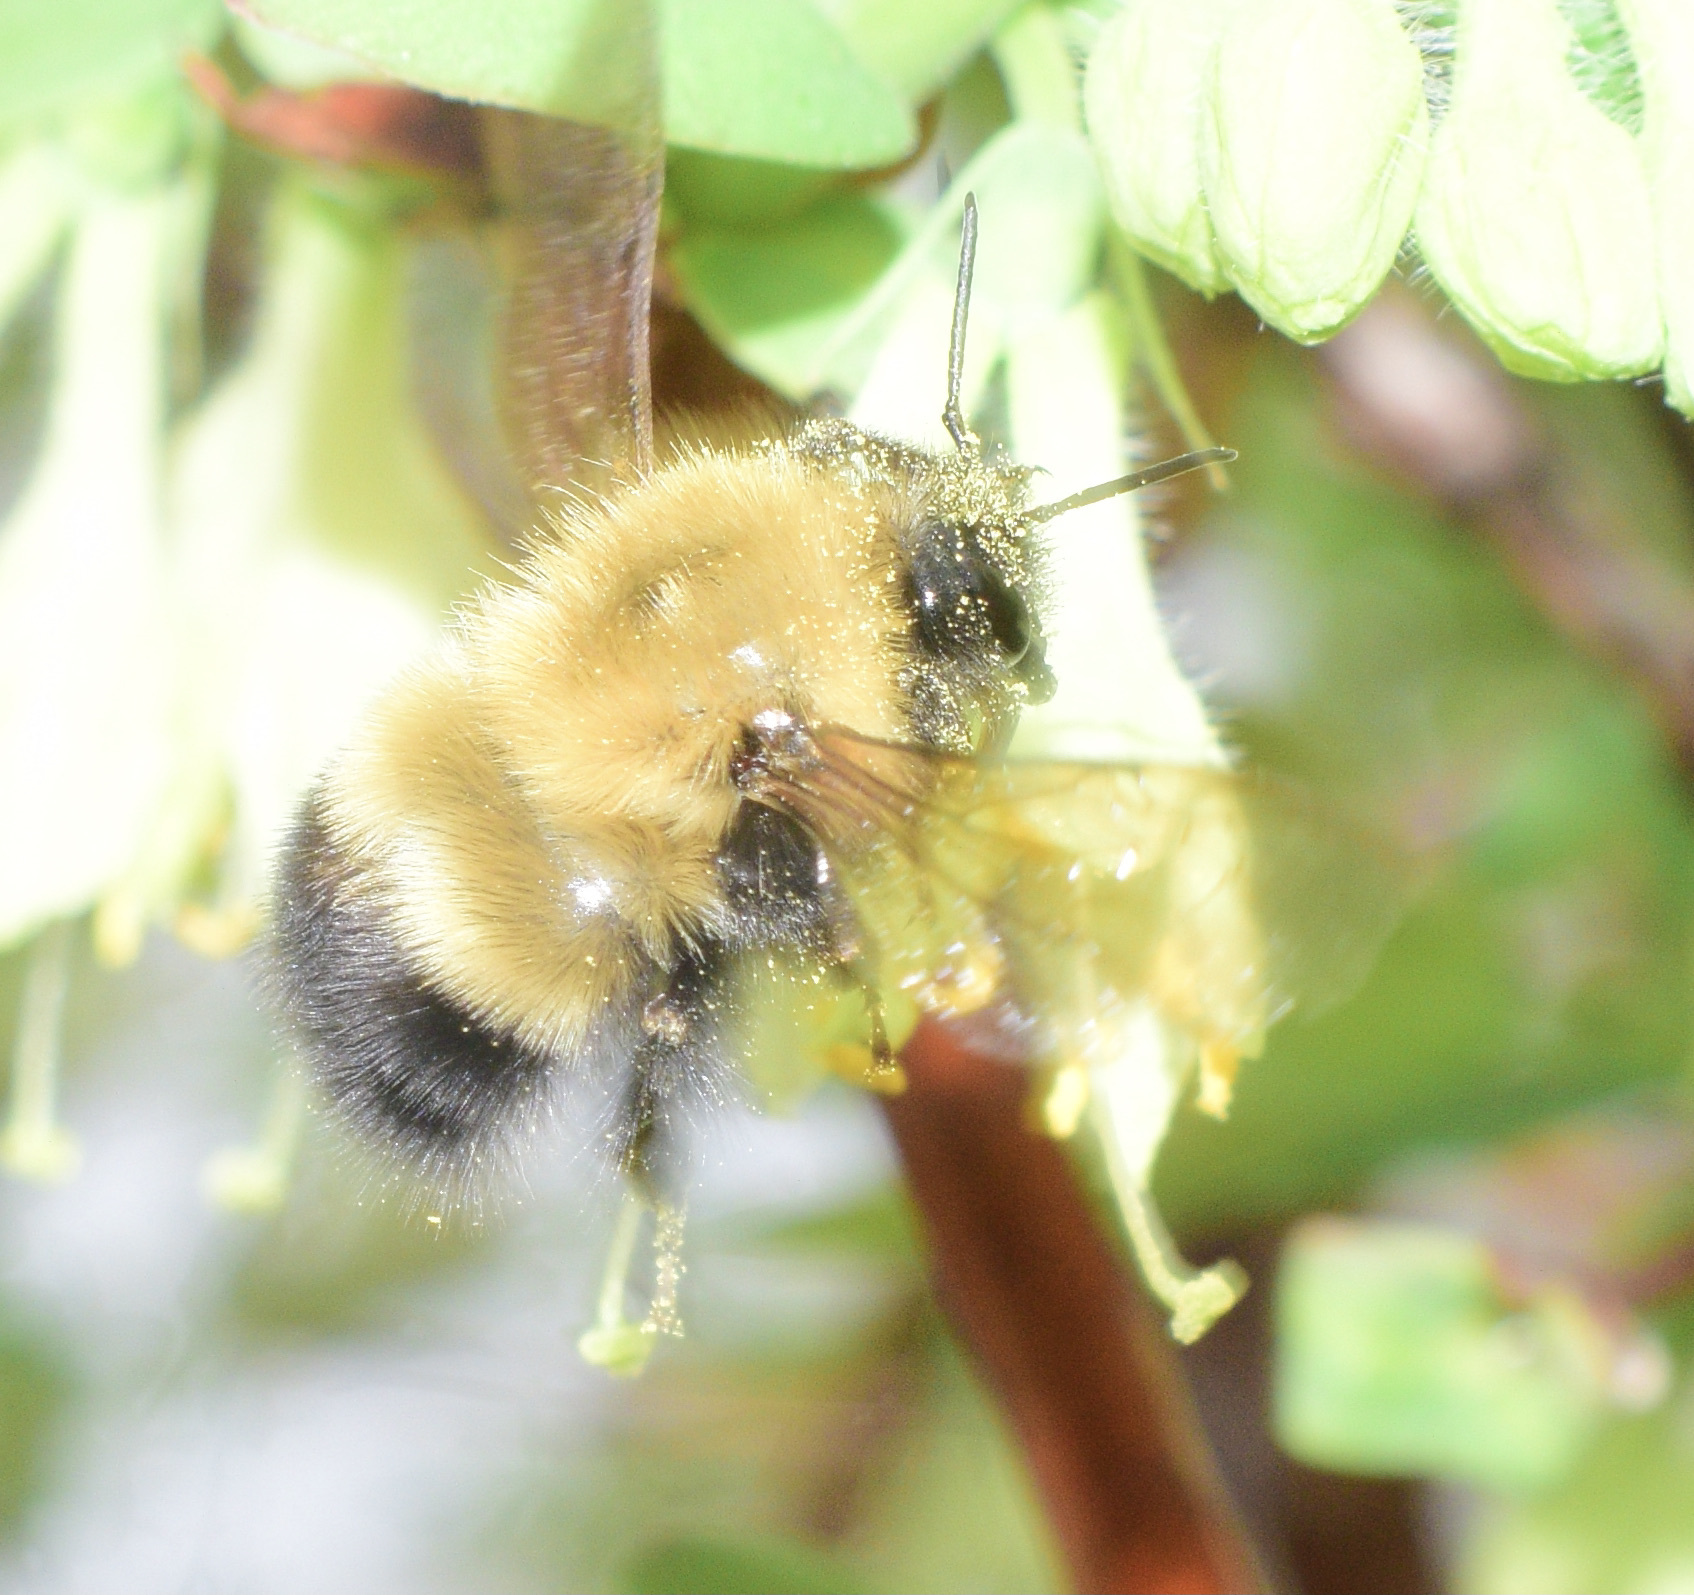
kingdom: Animalia
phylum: Arthropoda
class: Insecta
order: Hymenoptera
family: Apidae
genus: Bombus
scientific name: Bombus perplexus
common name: Confusing bumble bee
